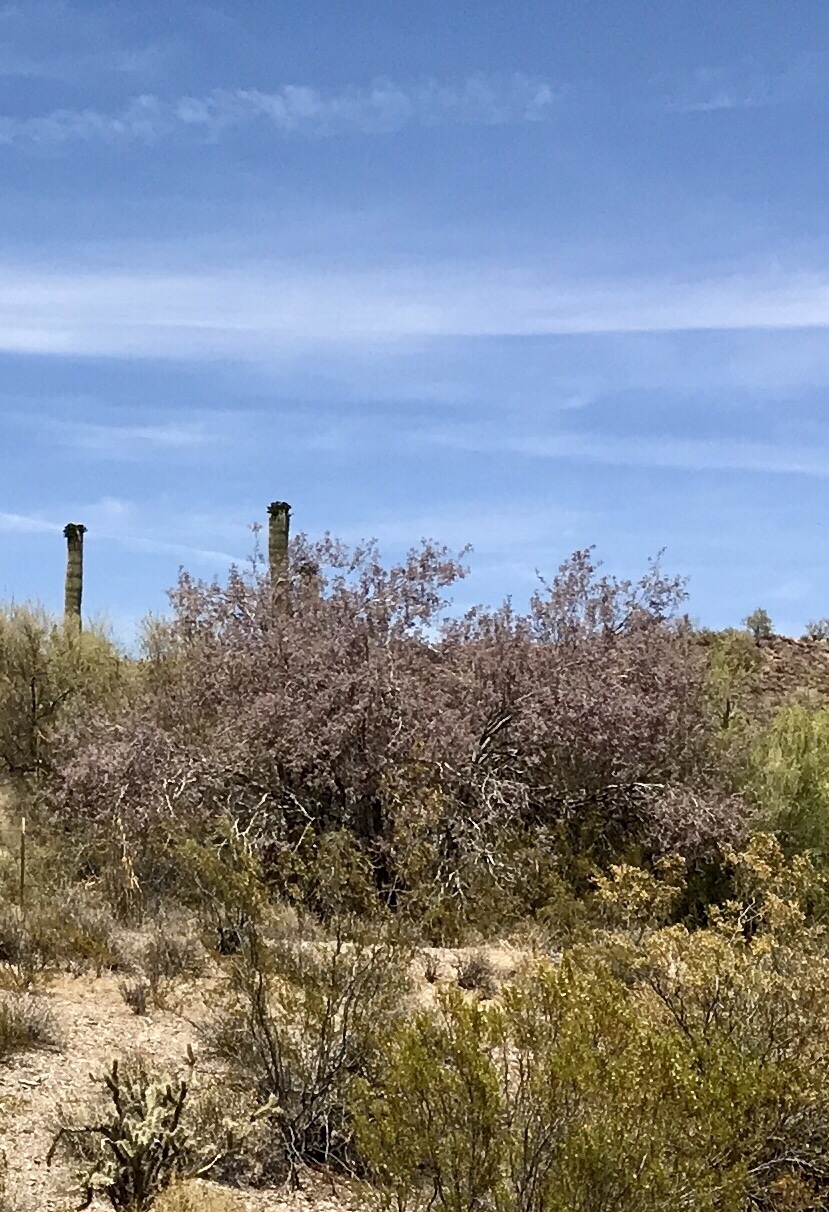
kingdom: Plantae
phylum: Tracheophyta
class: Magnoliopsida
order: Fabales
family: Fabaceae
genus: Olneya
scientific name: Olneya tesota
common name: Desert ironwood
